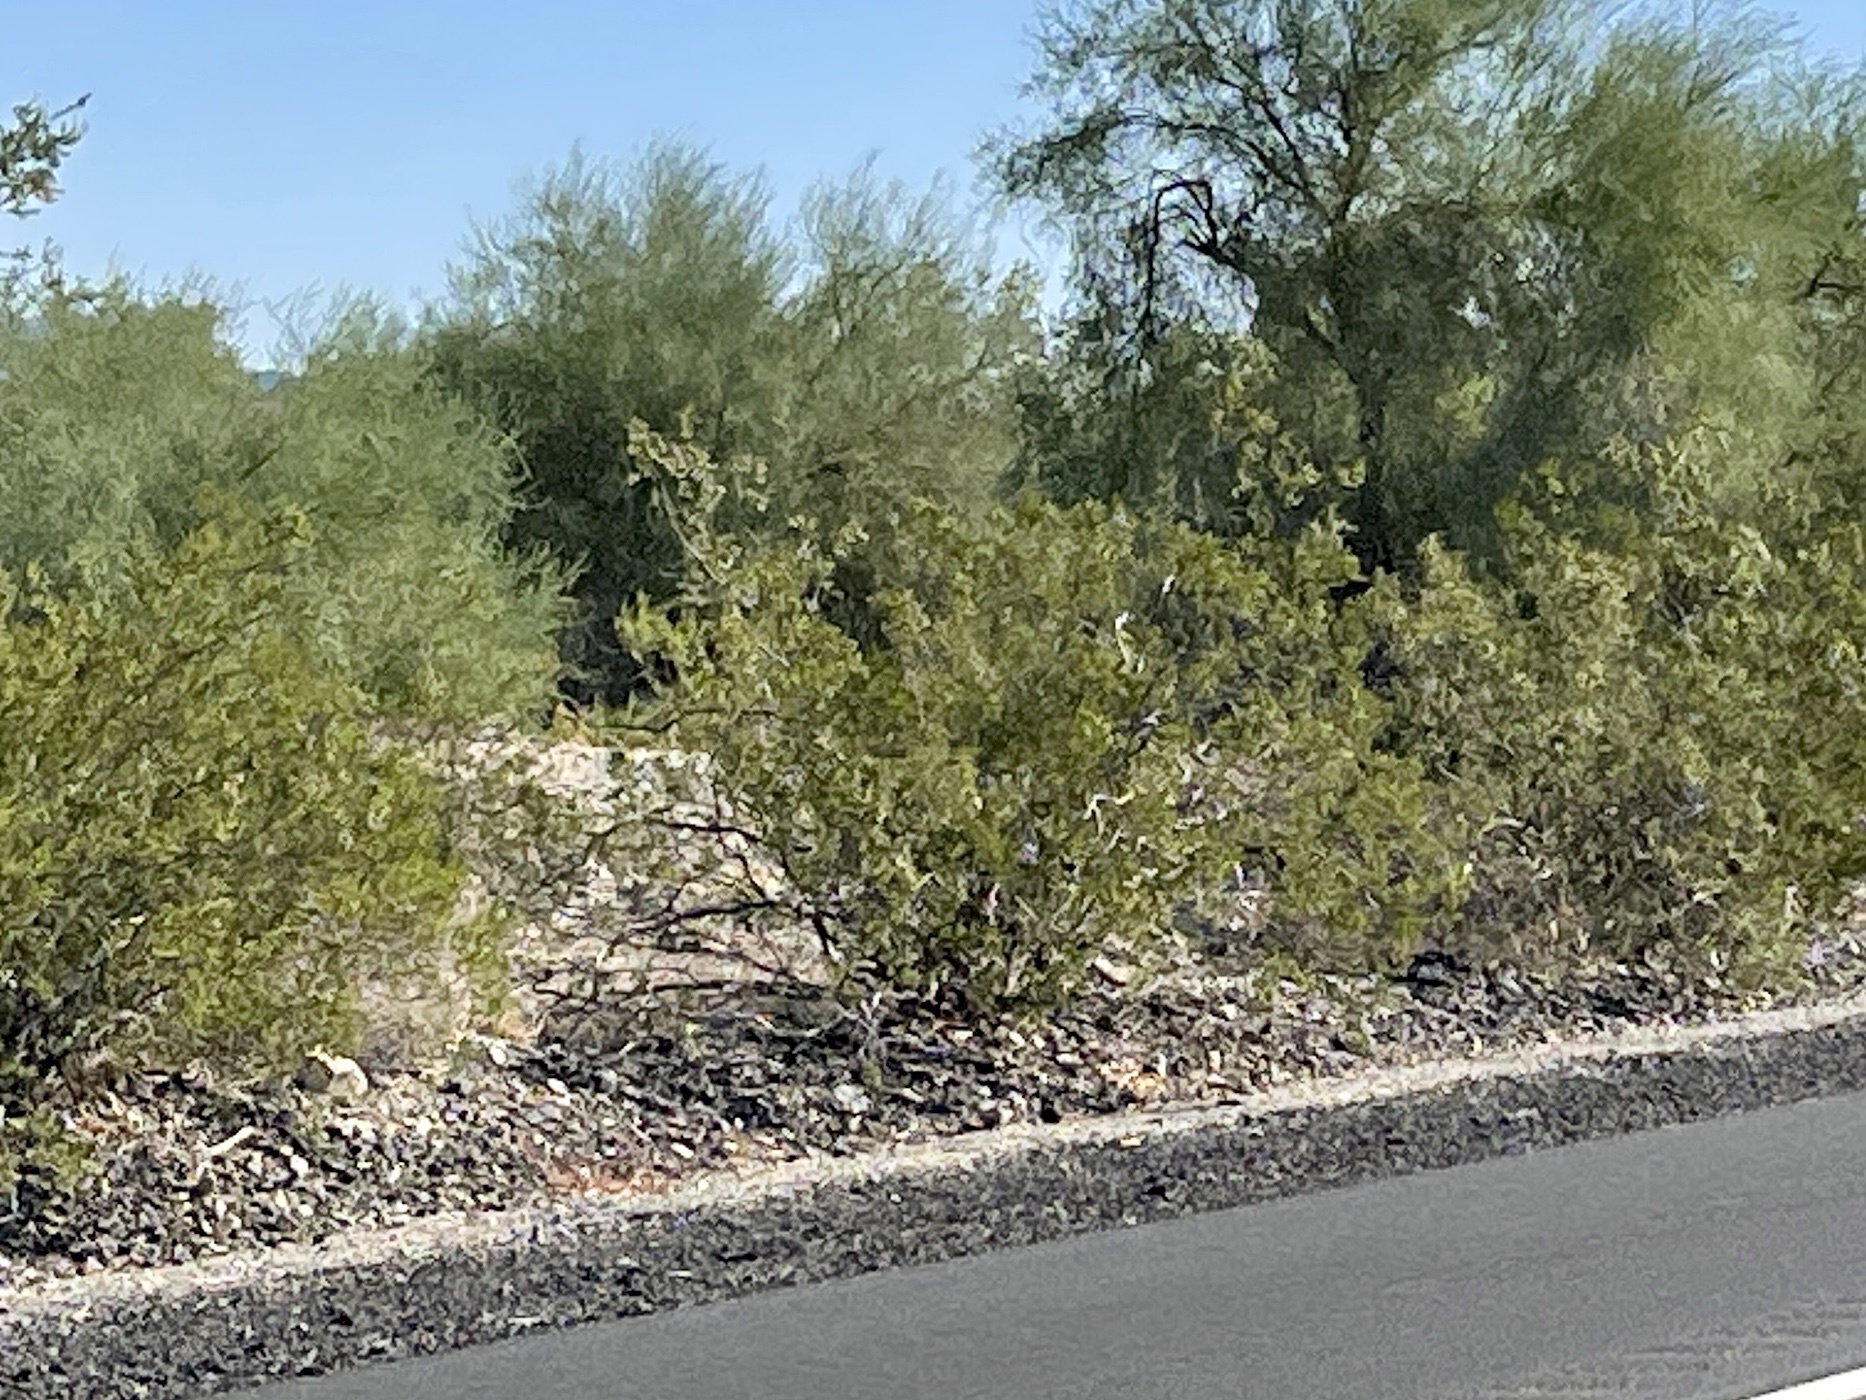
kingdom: Plantae
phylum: Tracheophyta
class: Magnoliopsida
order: Zygophyllales
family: Zygophyllaceae
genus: Larrea
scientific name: Larrea tridentata
